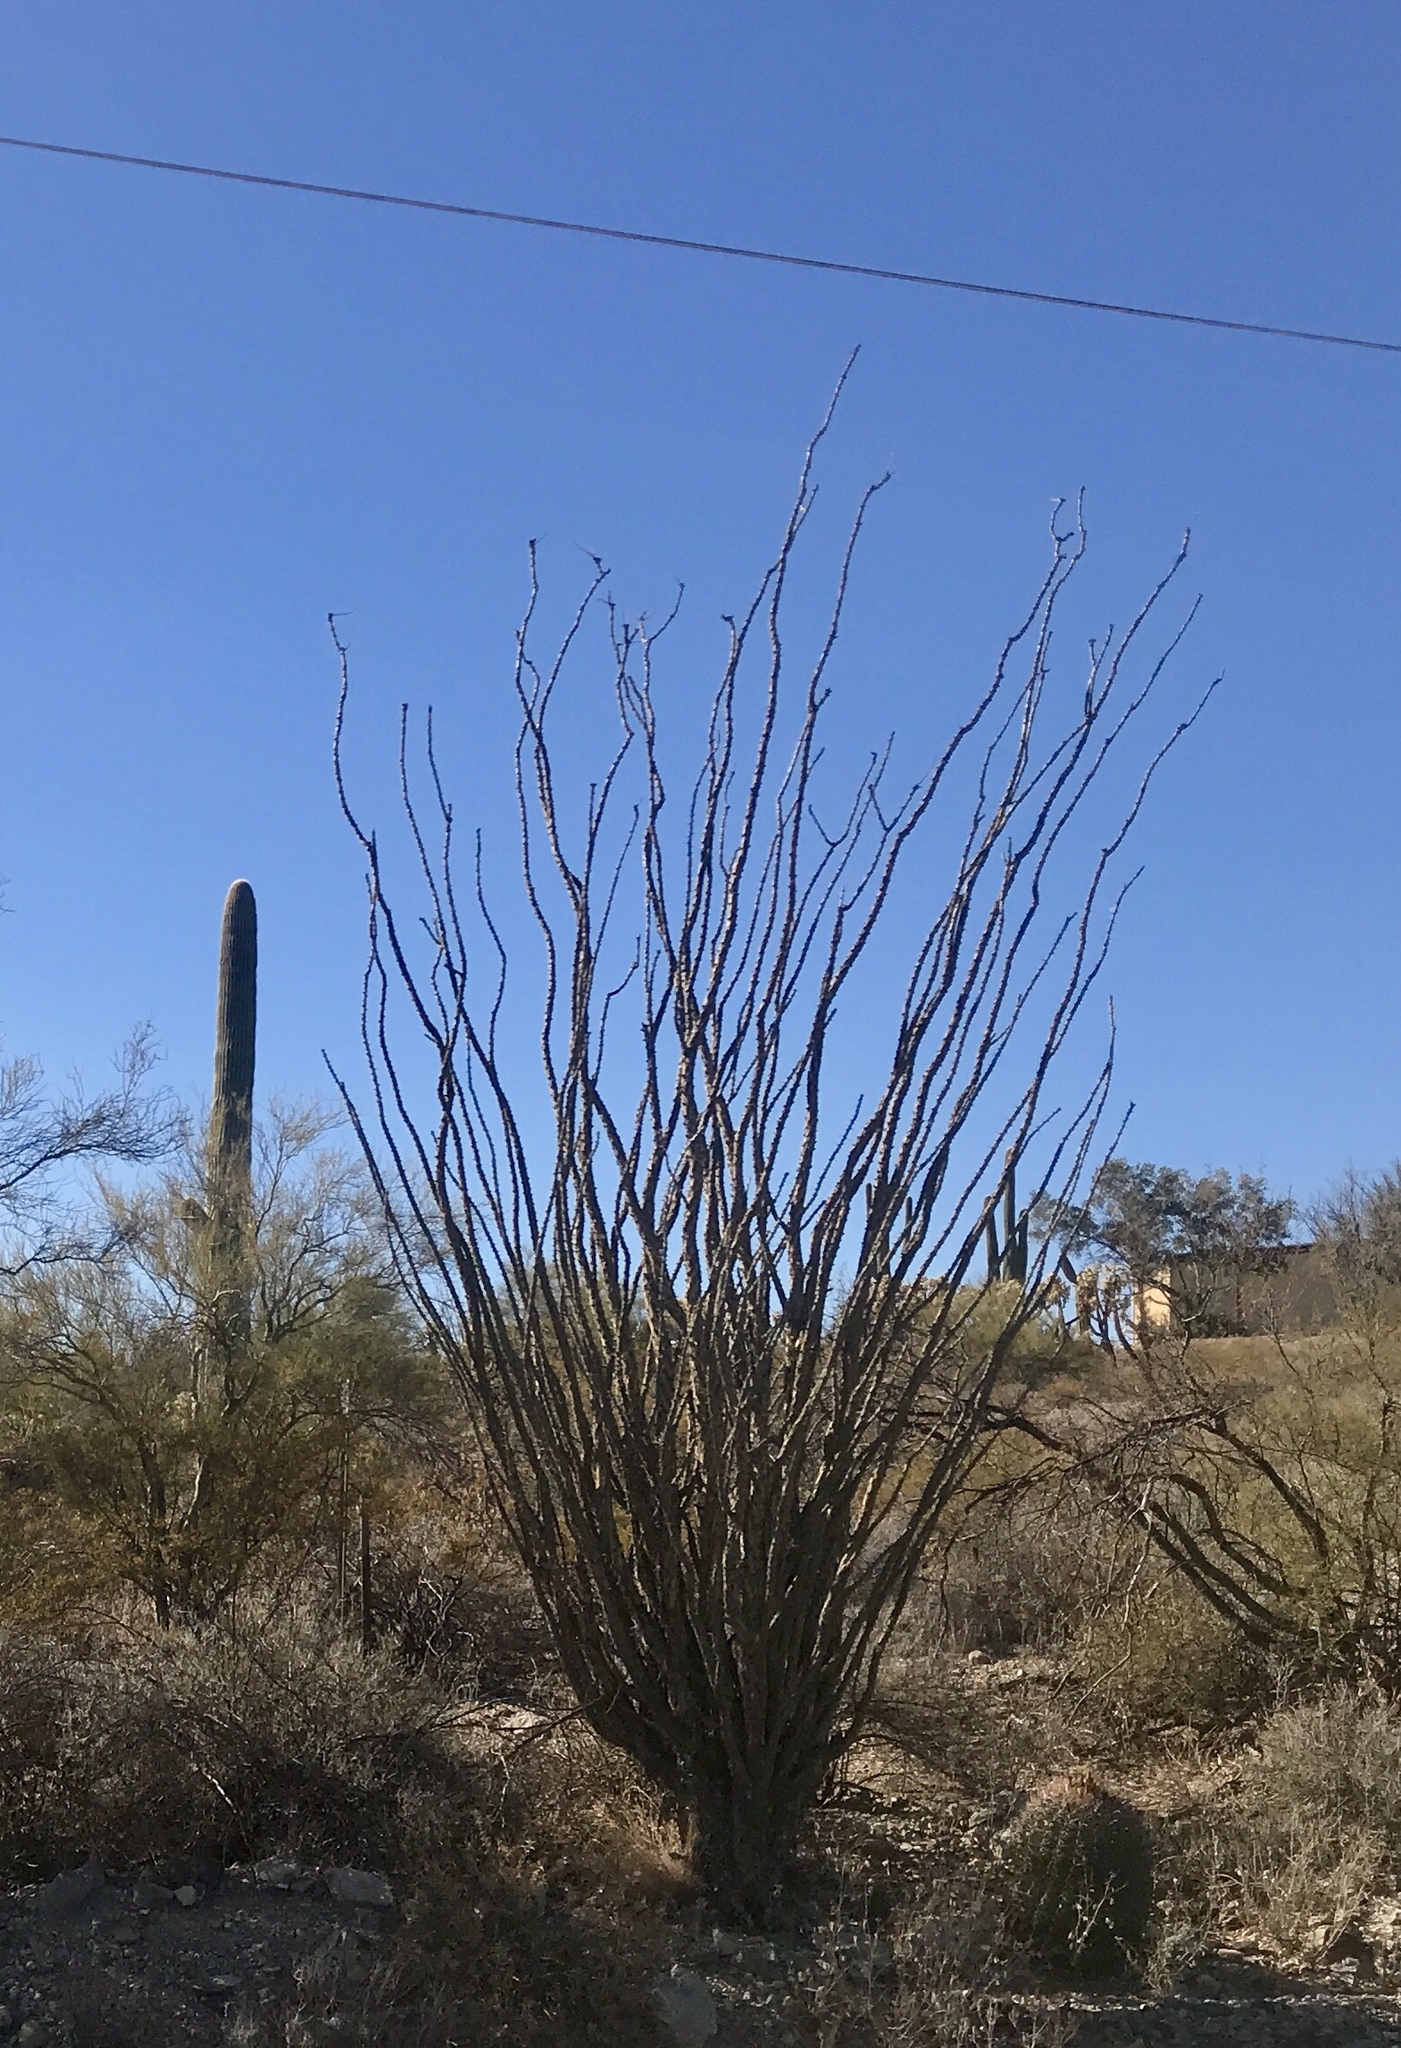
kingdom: Plantae
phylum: Tracheophyta
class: Magnoliopsida
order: Ericales
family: Fouquieriaceae
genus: Fouquieria
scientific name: Fouquieria splendens
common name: Vine-cactus
